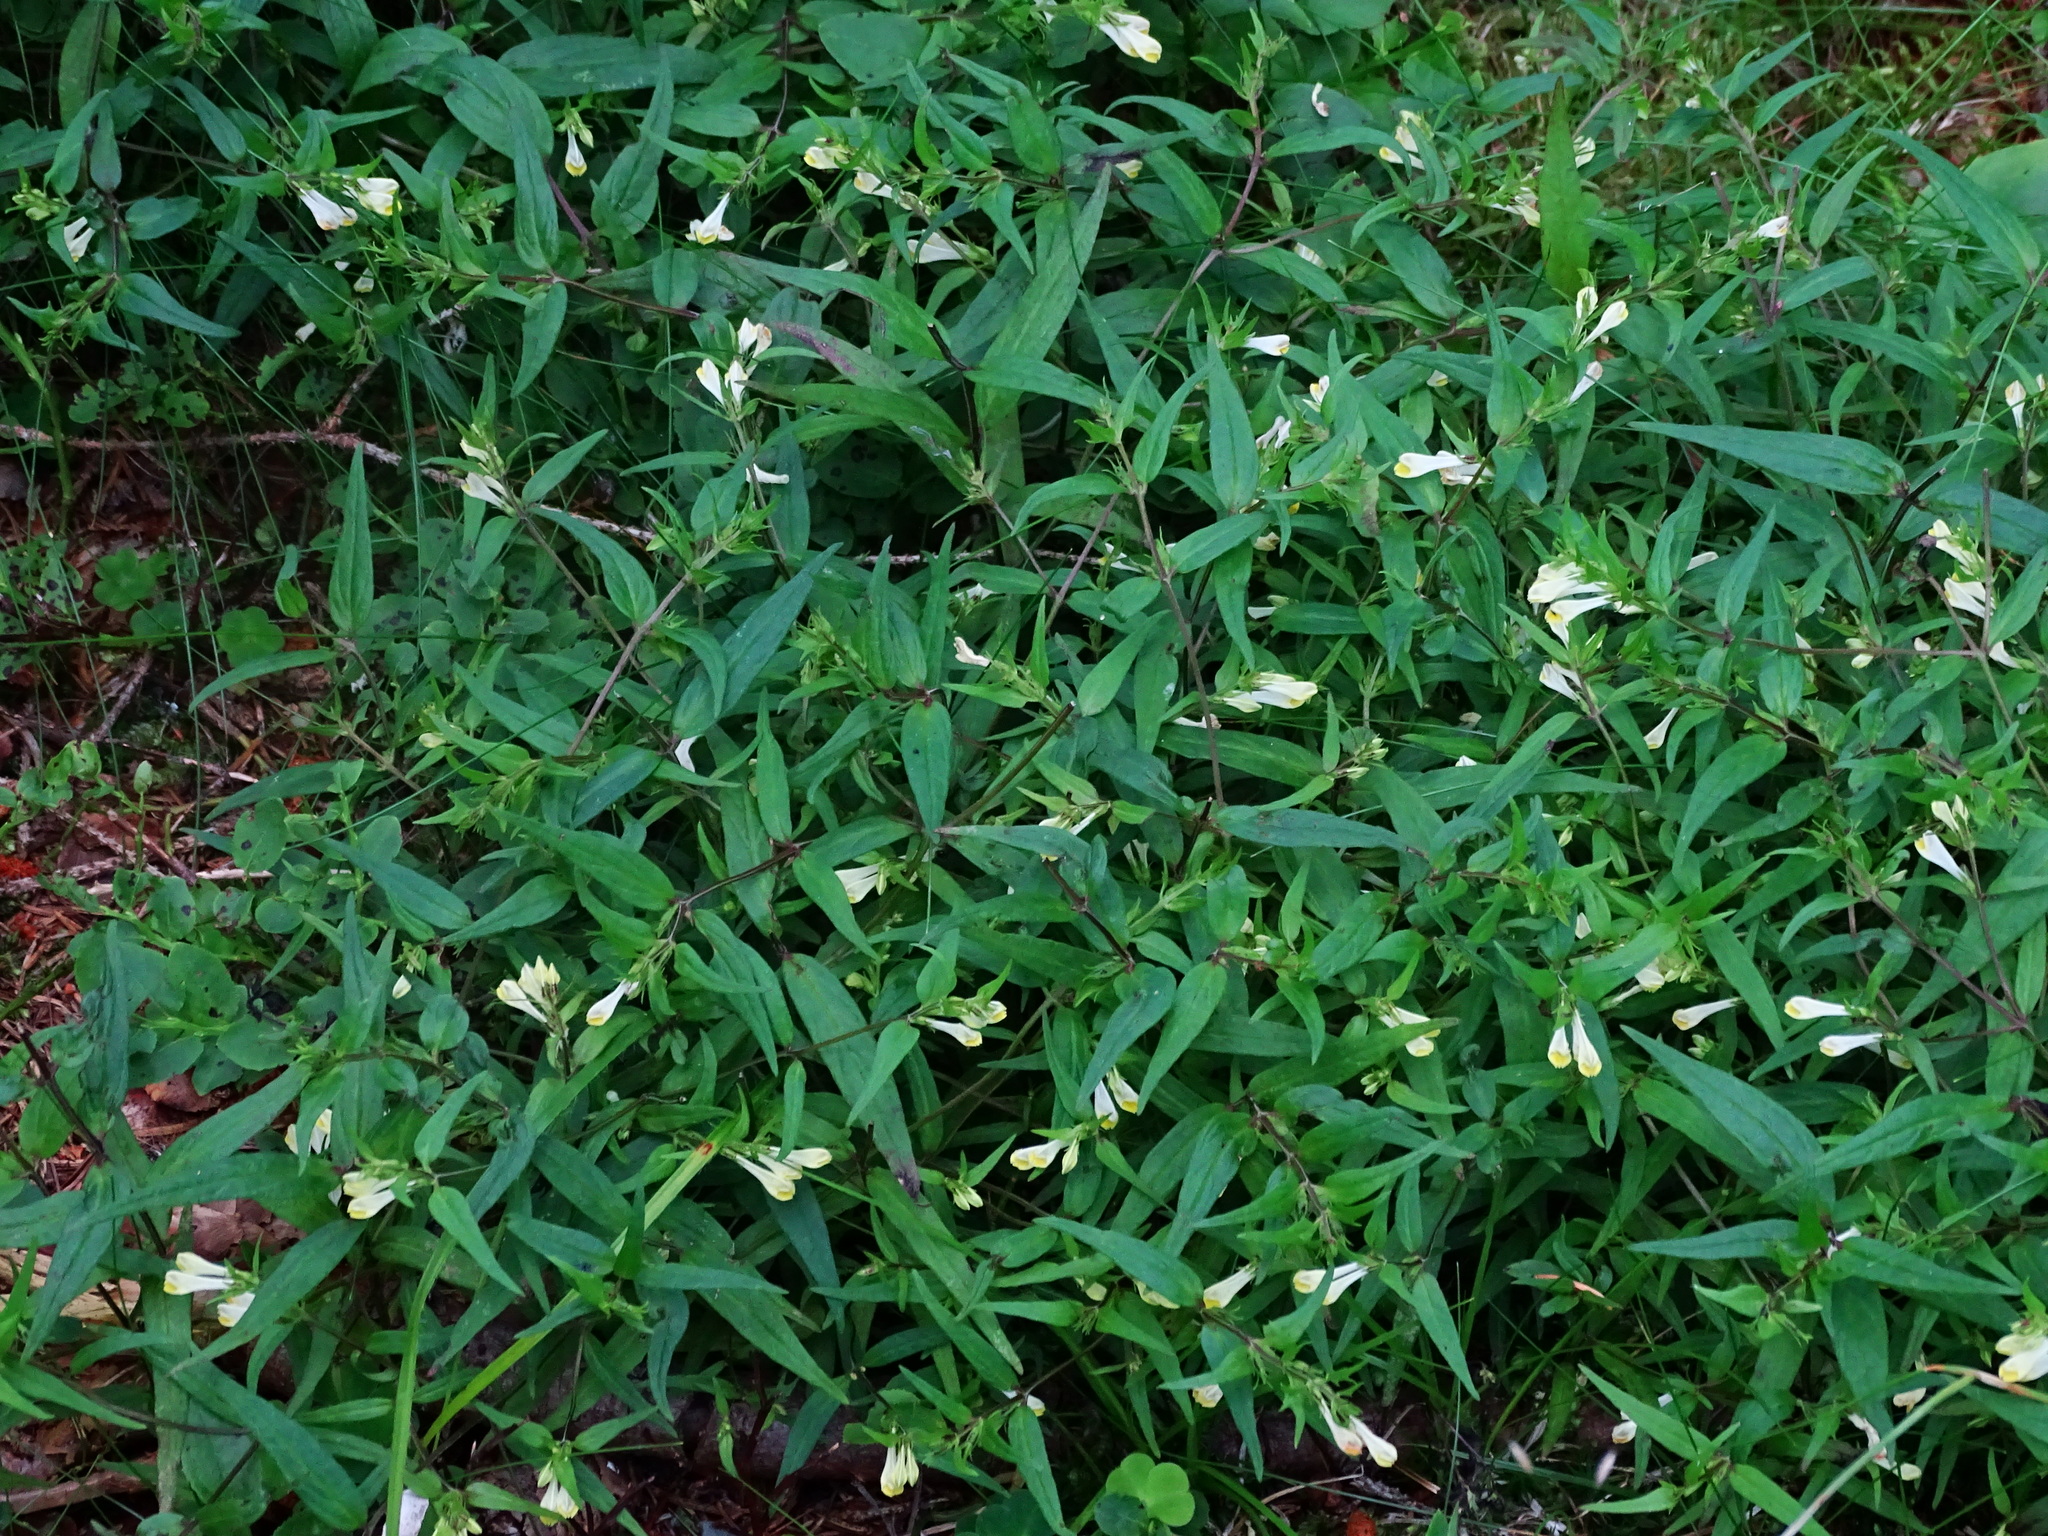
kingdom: Plantae
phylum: Tracheophyta
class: Magnoliopsida
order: Lamiales
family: Orobanchaceae
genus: Melampyrum
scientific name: Melampyrum pratense
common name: Common cow-wheat
